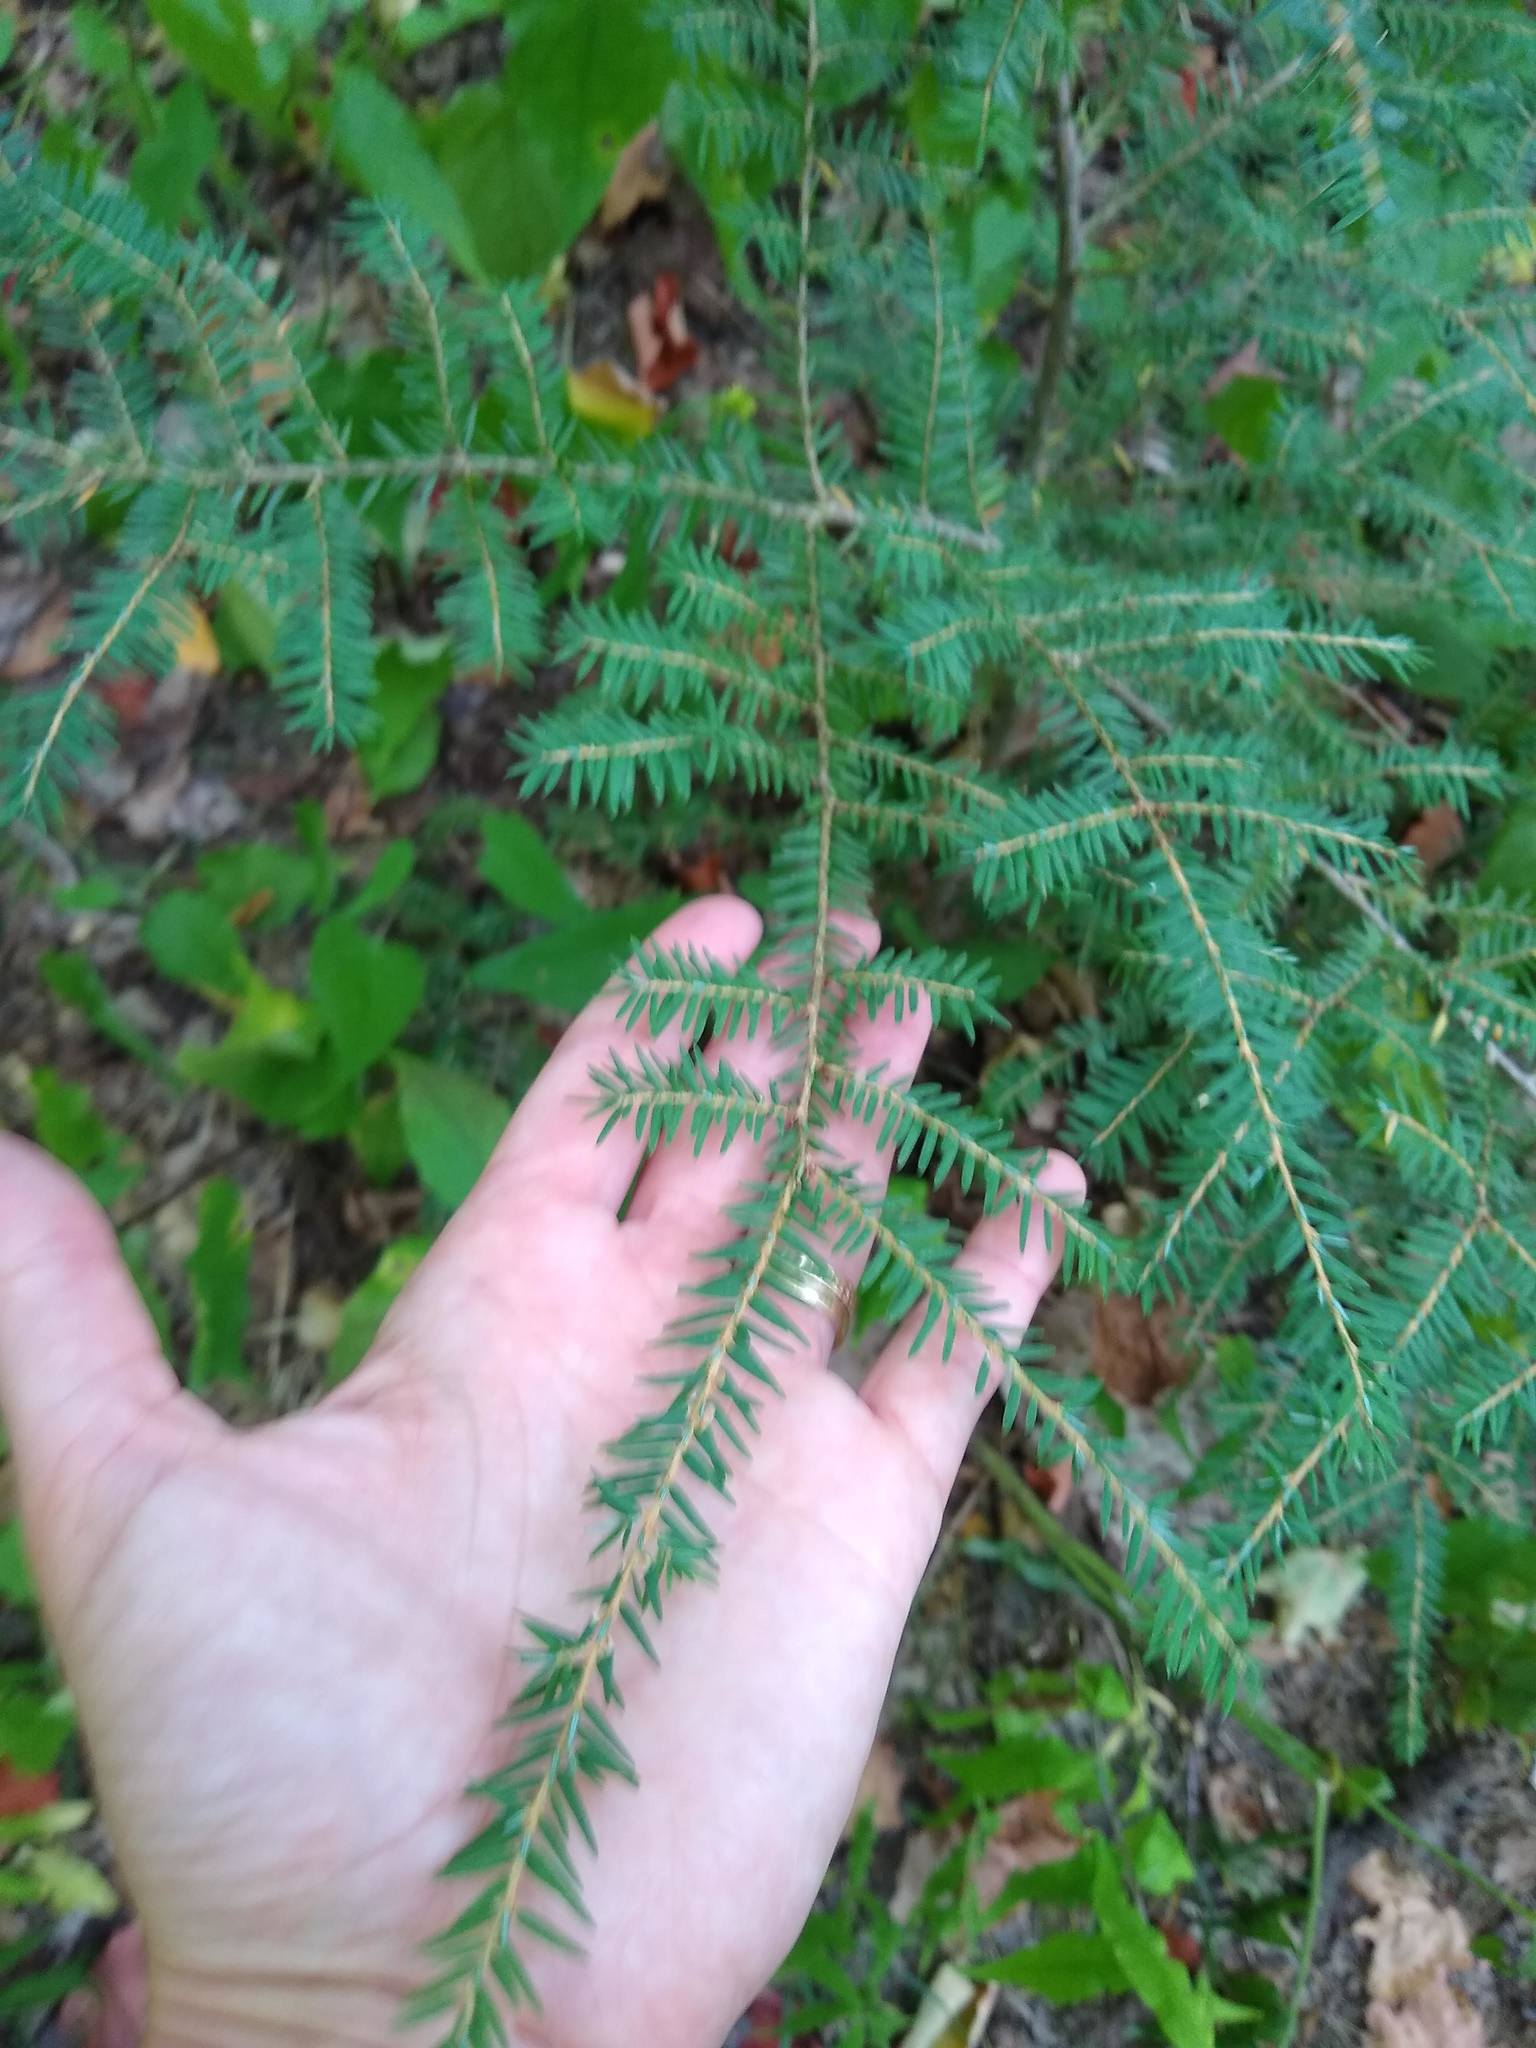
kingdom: Plantae
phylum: Tracheophyta
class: Pinopsida
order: Pinales
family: Pinaceae
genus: Tsuga
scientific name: Tsuga canadensis
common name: Eastern hemlock
